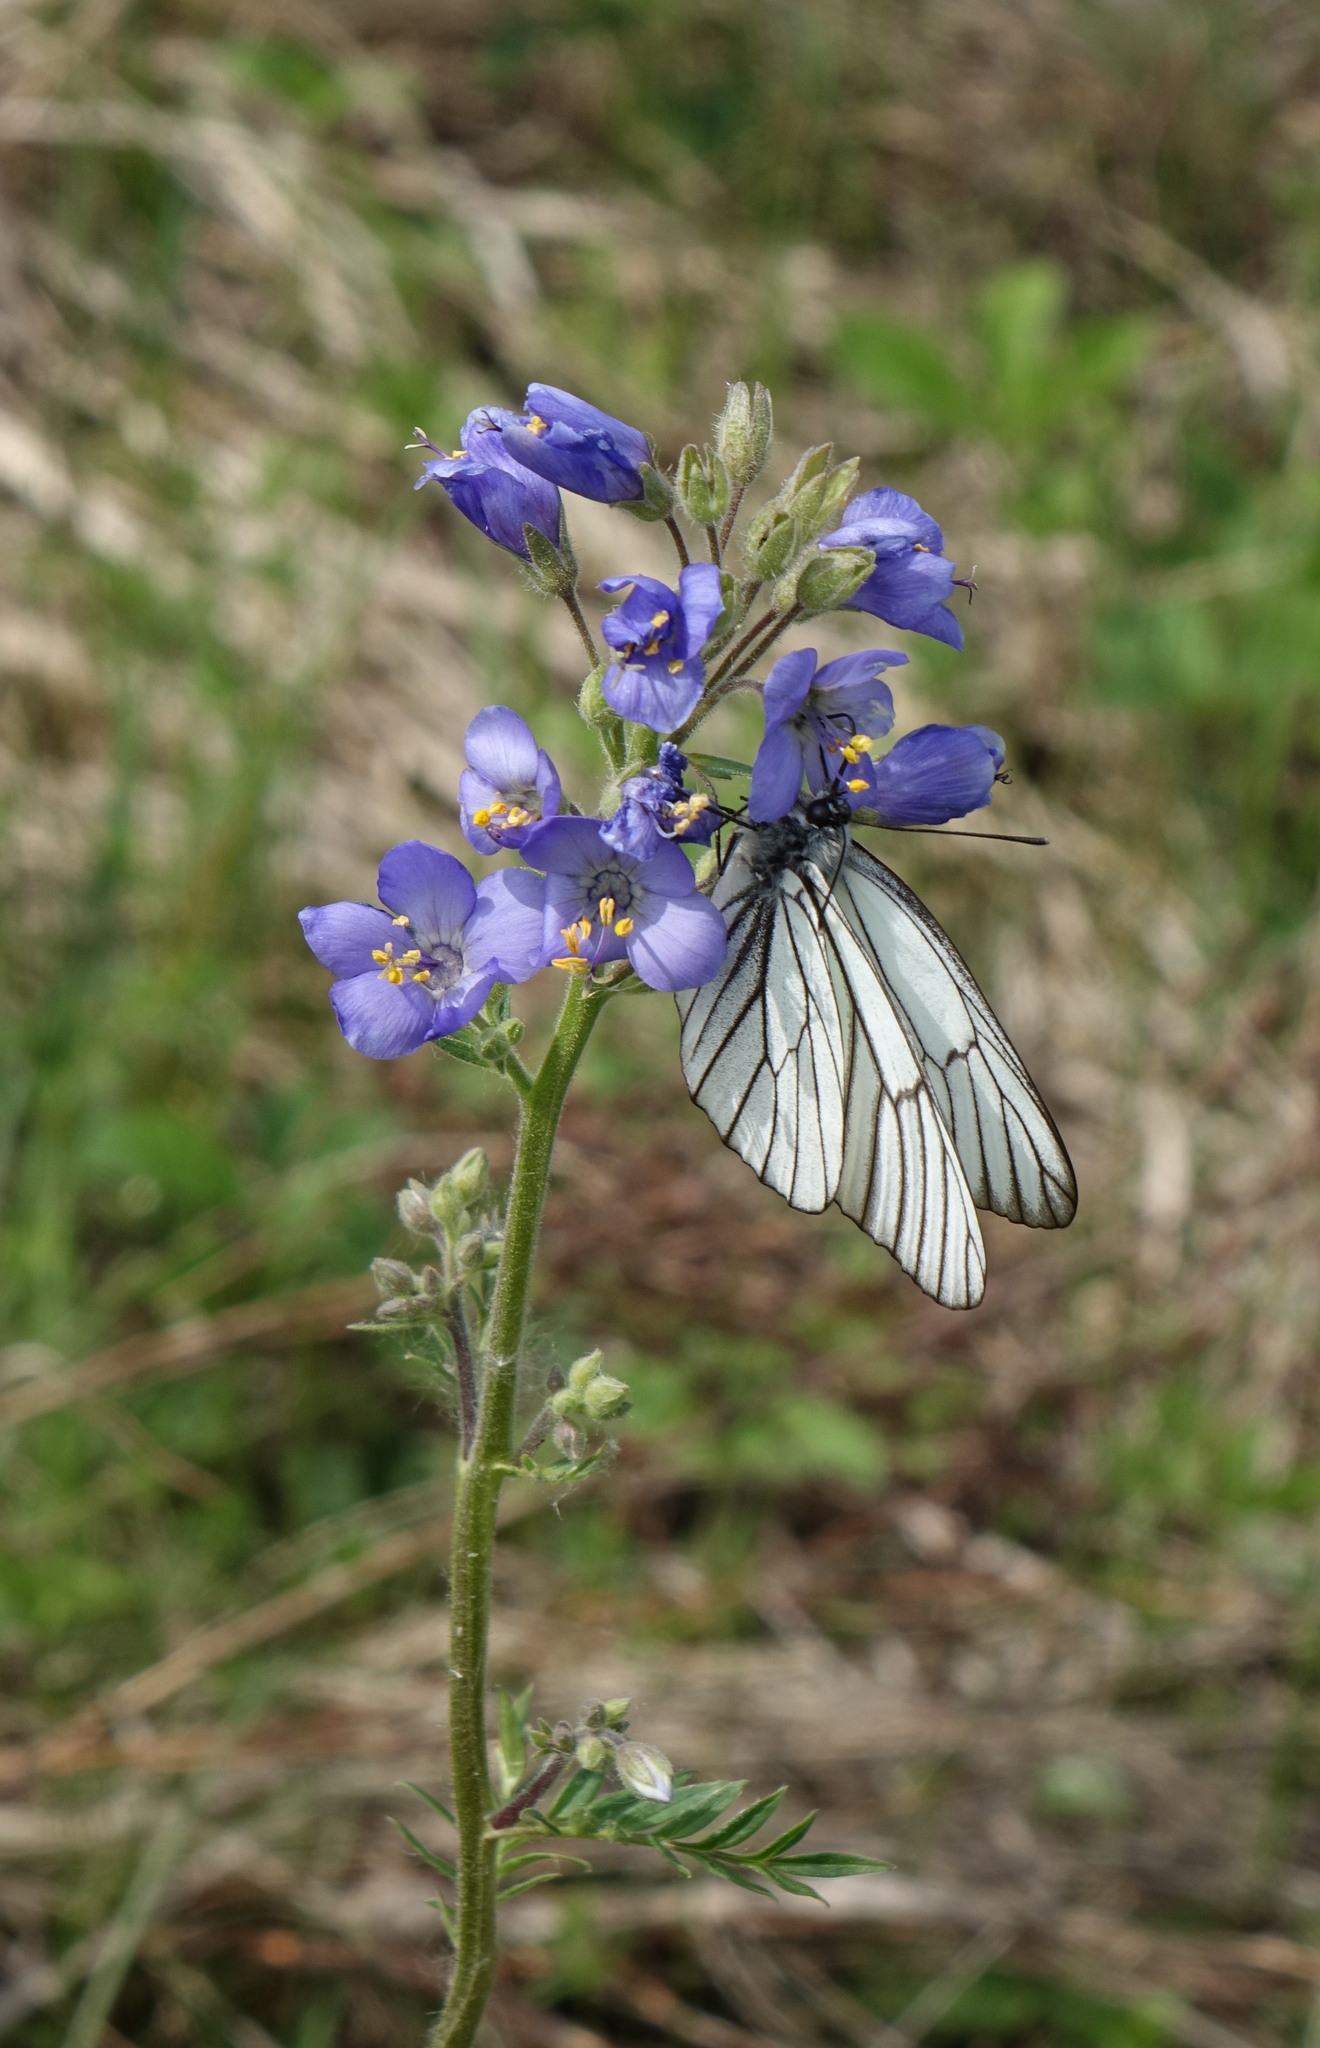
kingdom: Plantae
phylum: Tracheophyta
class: Magnoliopsida
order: Ericales
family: Polemoniaceae
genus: Polemonium
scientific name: Polemonium caeruleum
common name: Jacob's-ladder
